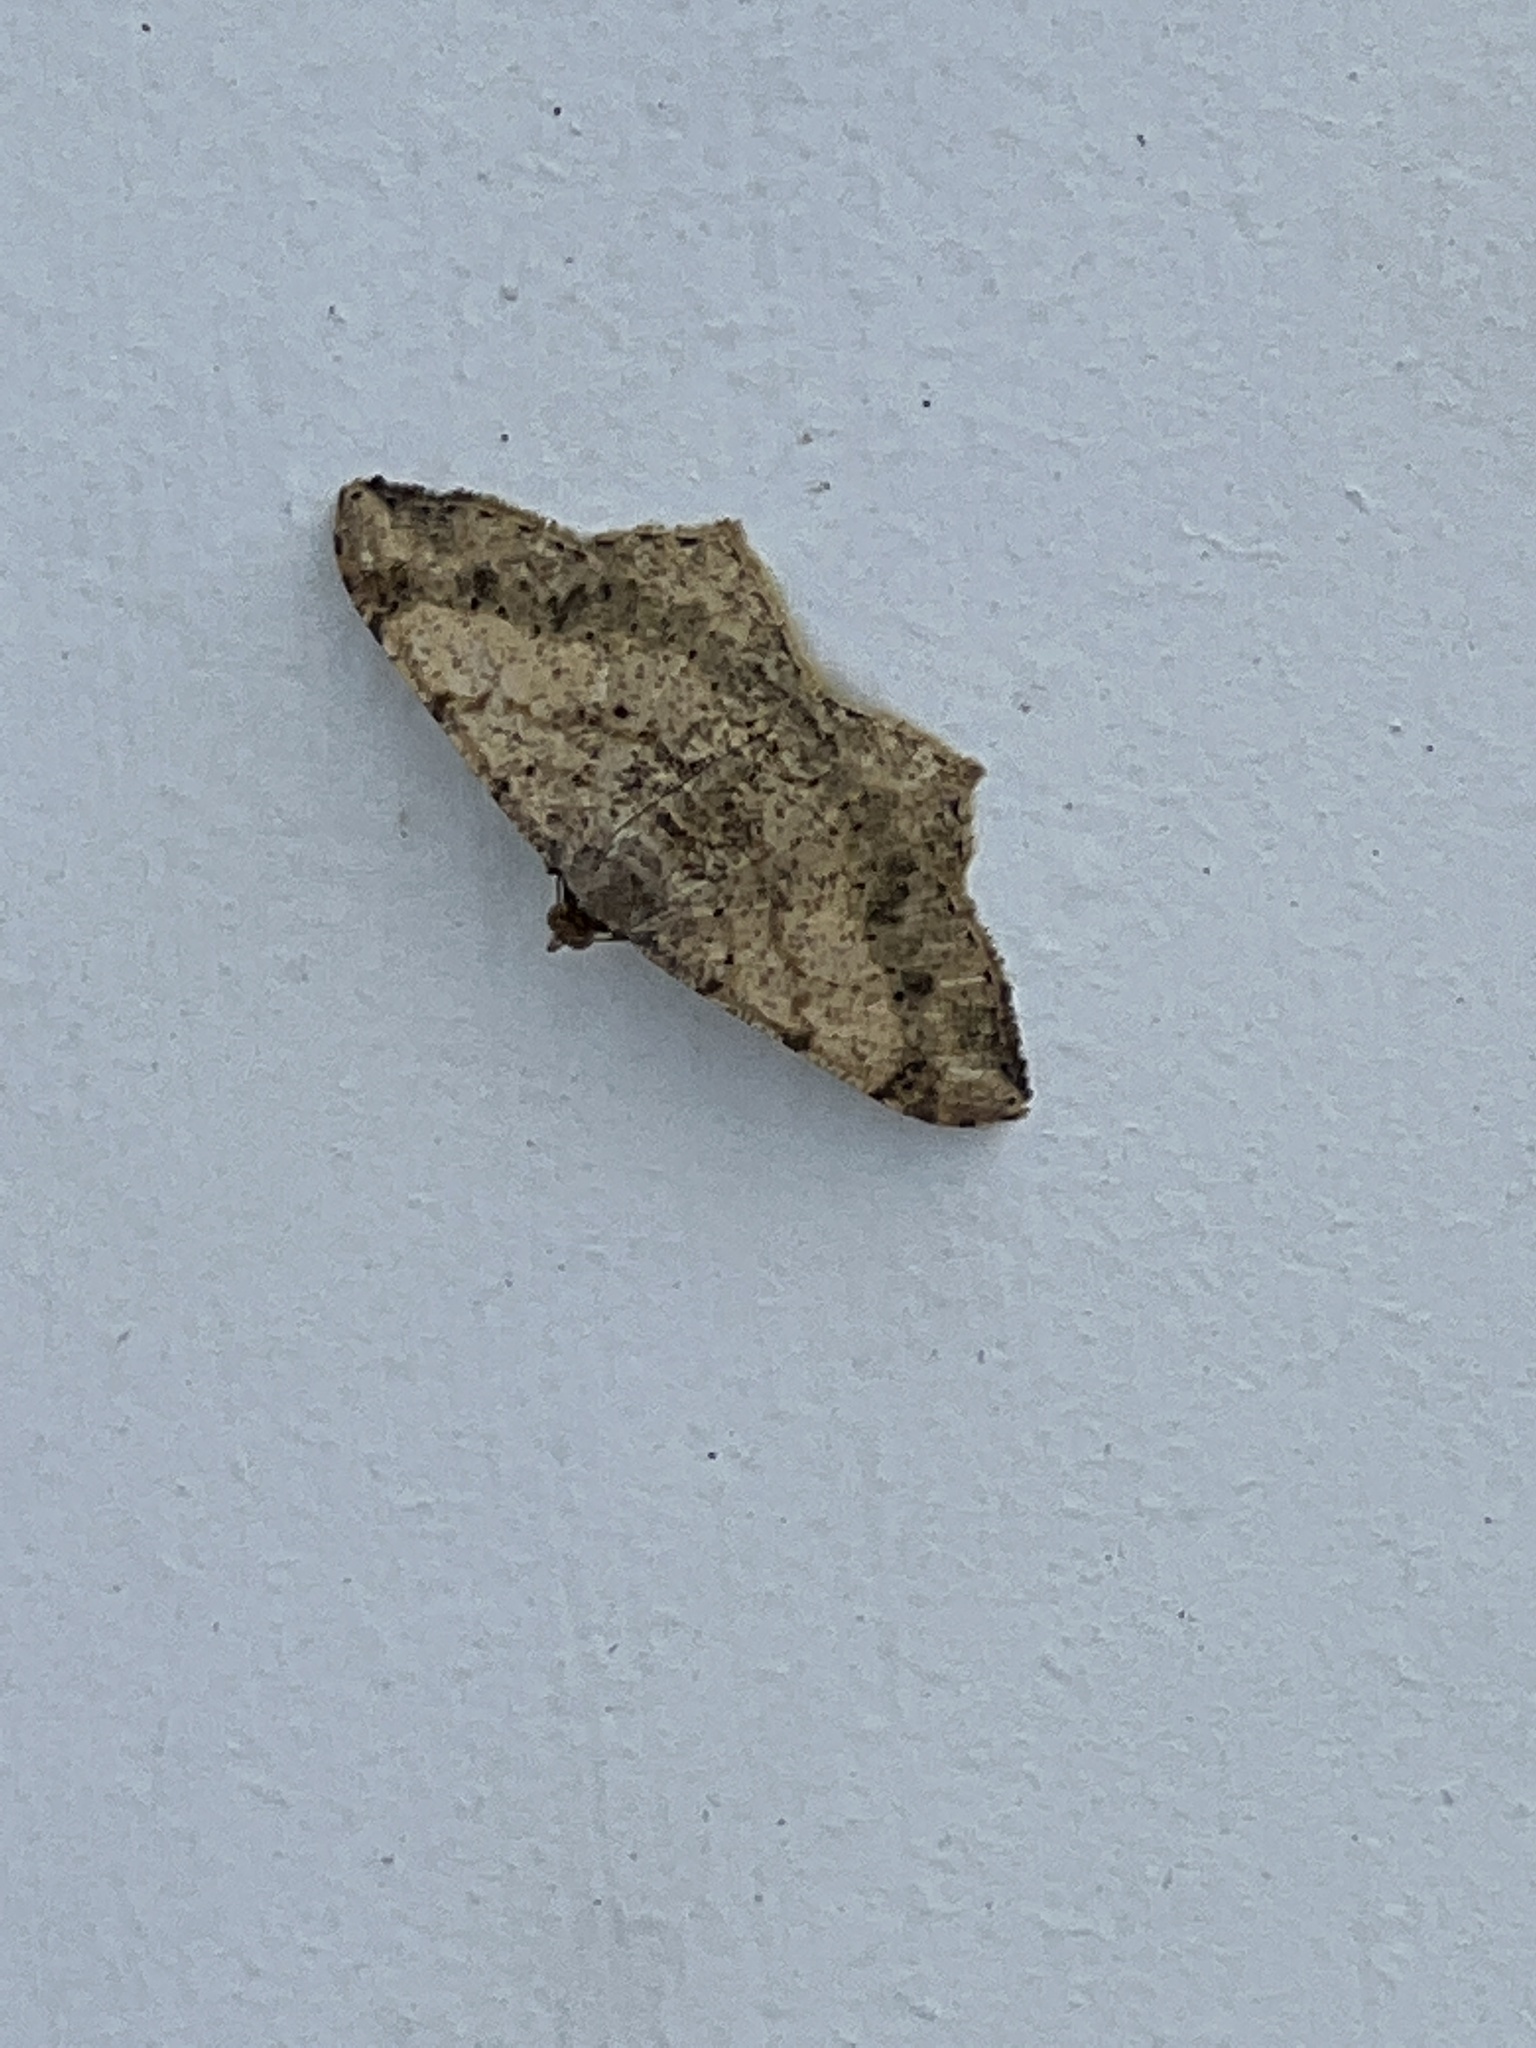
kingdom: Animalia
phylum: Arthropoda
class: Insecta
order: Lepidoptera
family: Geometridae
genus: Macaria
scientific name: Macaria abydata
